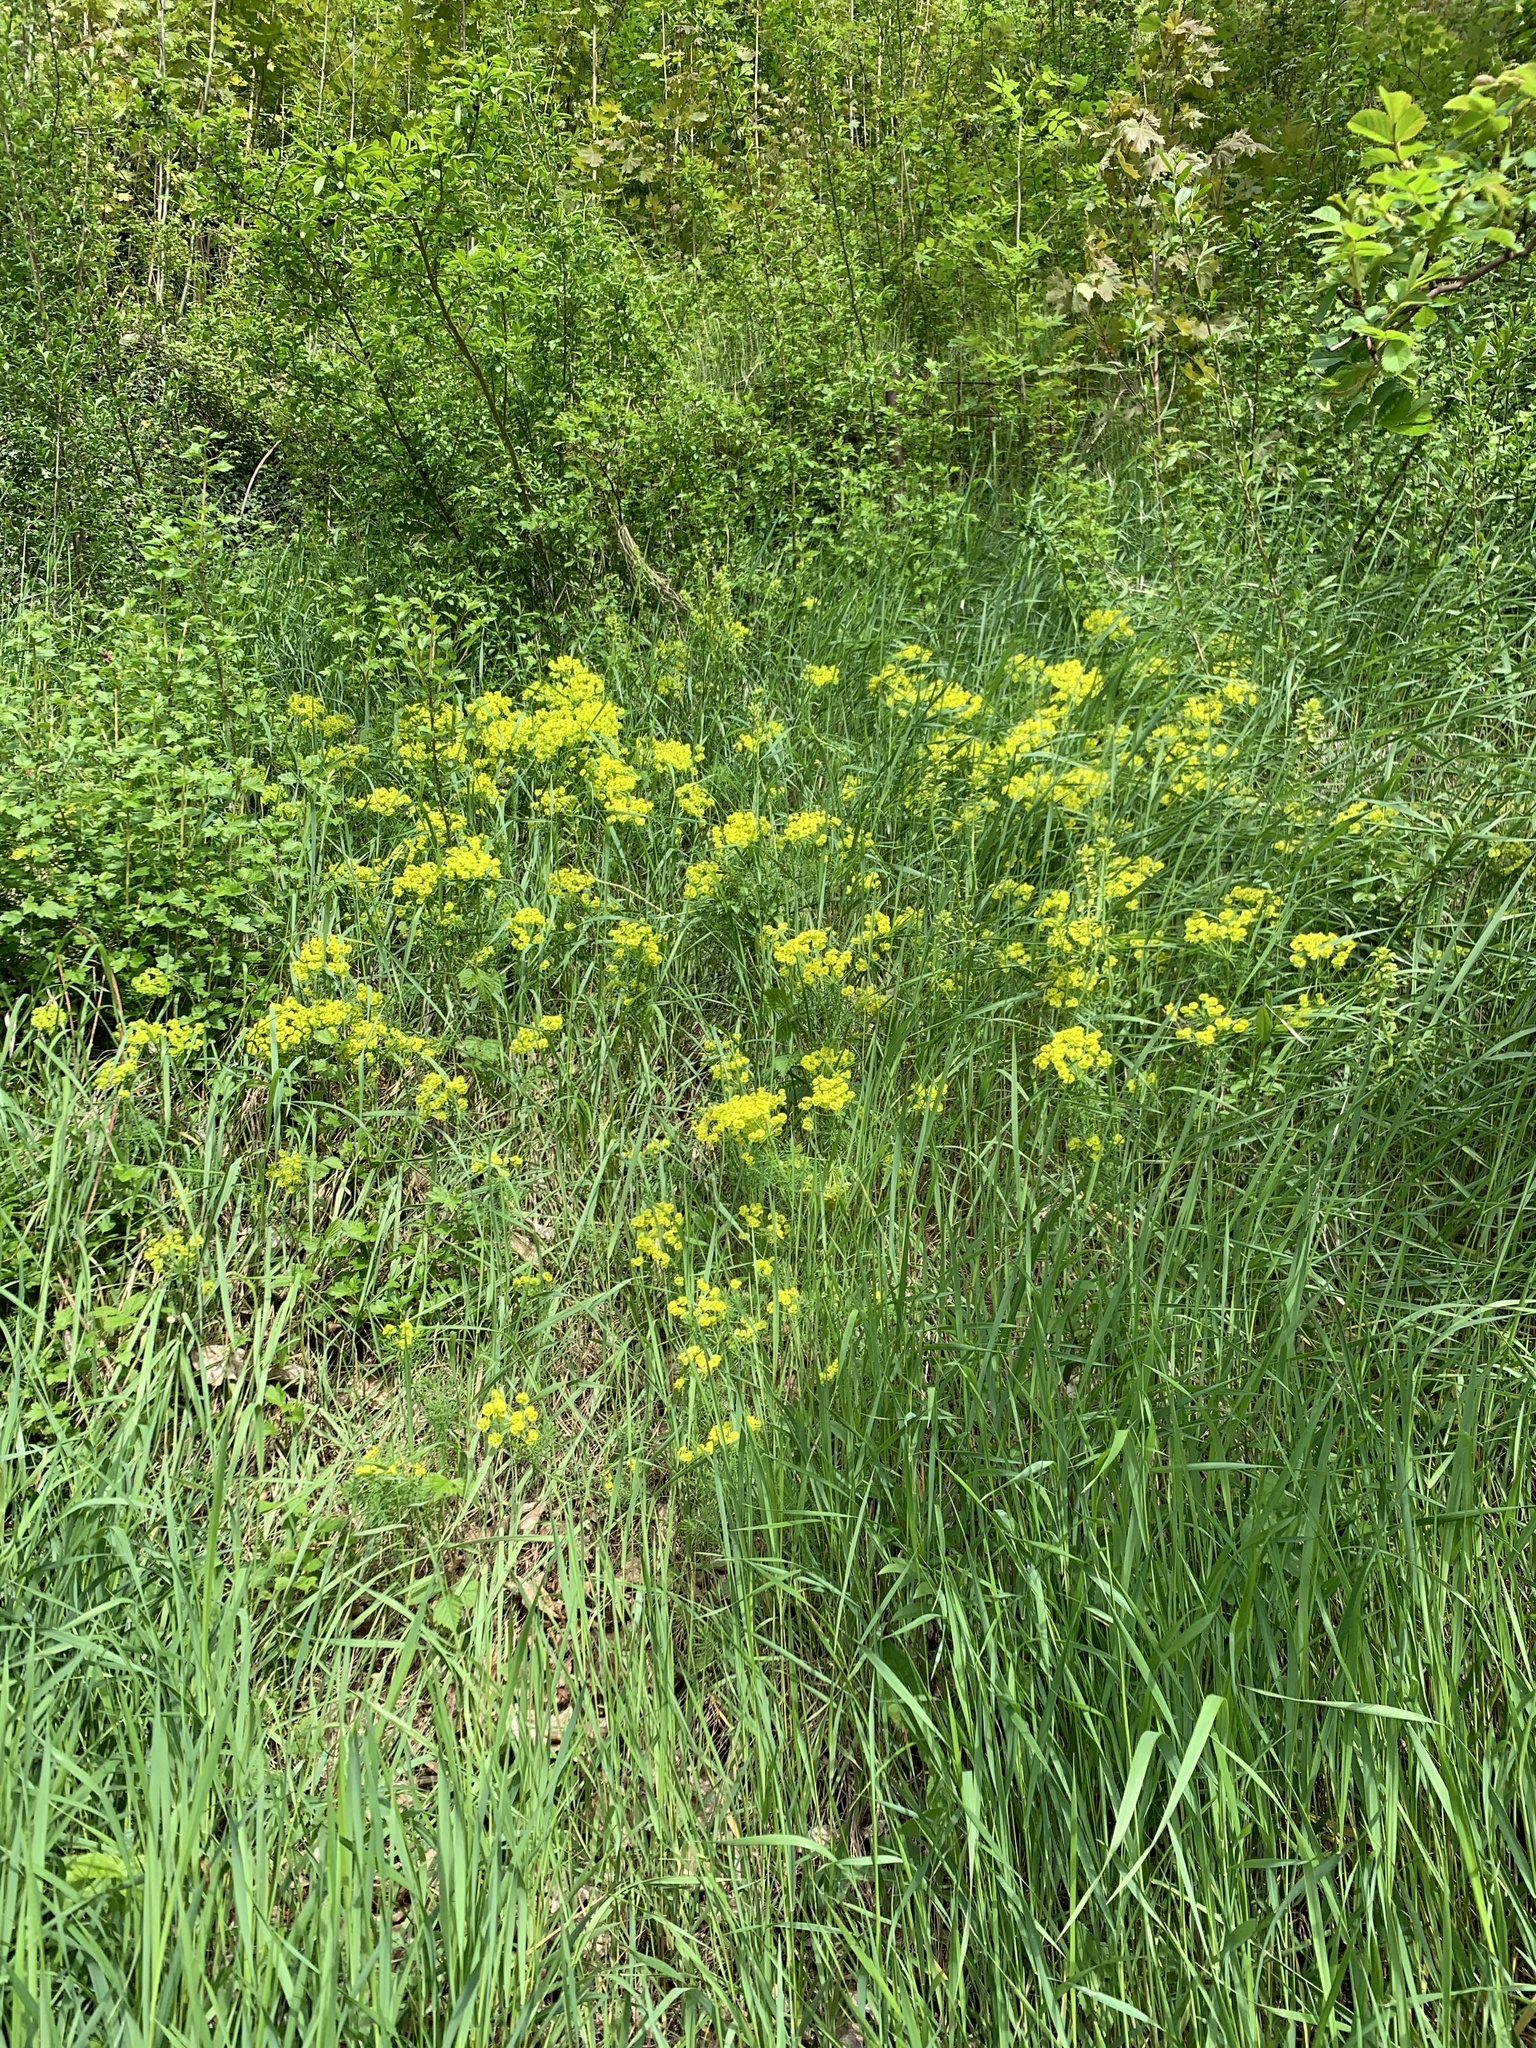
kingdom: Plantae
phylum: Tracheophyta
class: Magnoliopsida
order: Malpighiales
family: Euphorbiaceae
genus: Euphorbia
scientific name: Euphorbia cyparissias
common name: Cypress spurge
